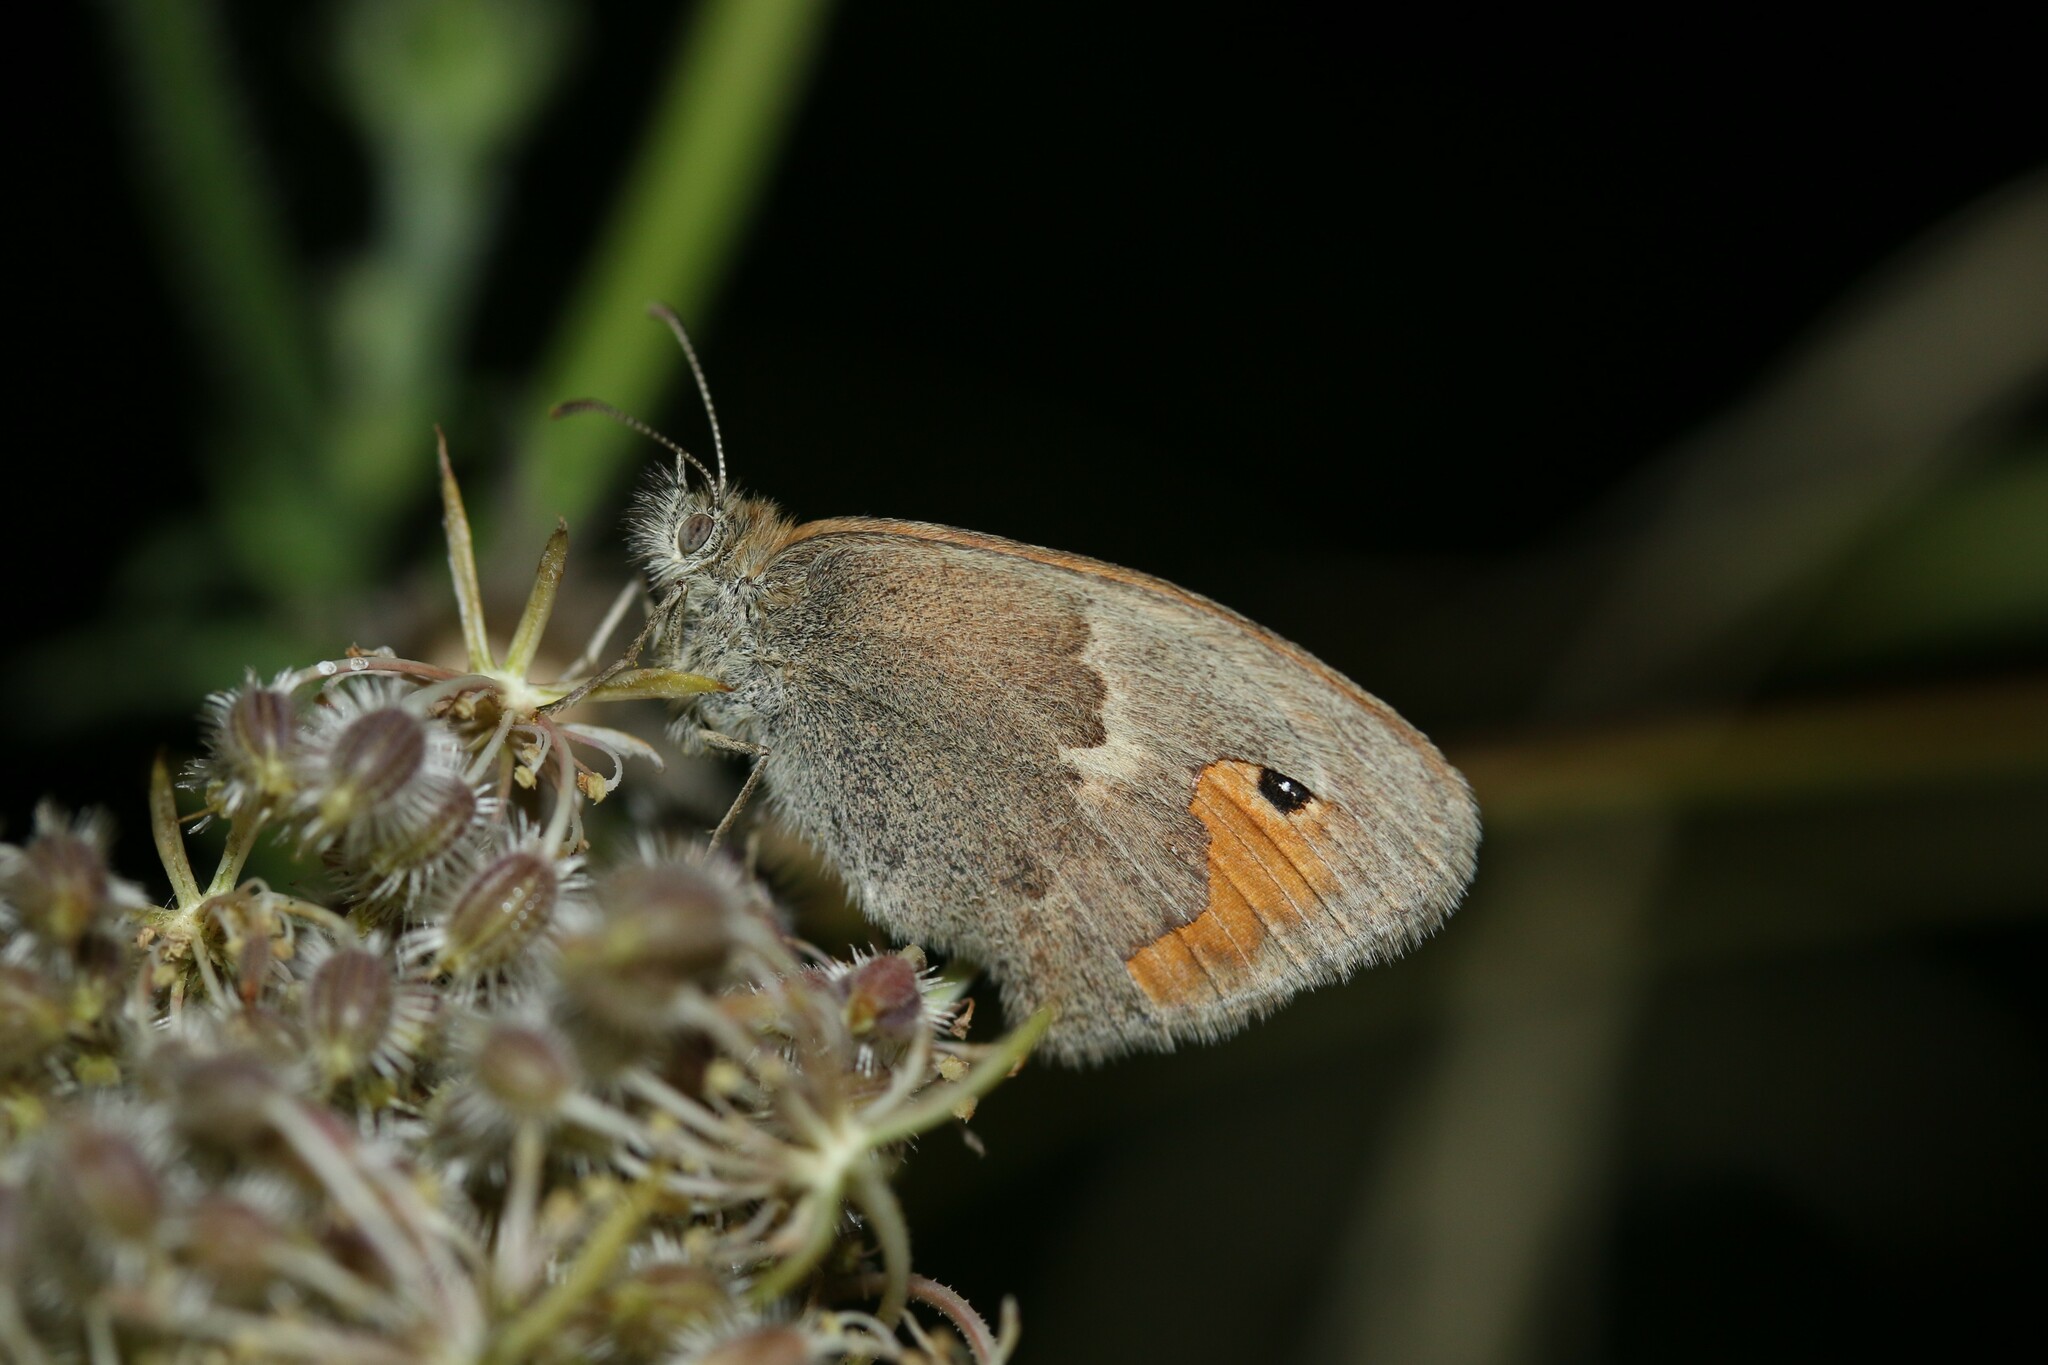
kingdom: Animalia
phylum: Arthropoda
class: Insecta
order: Lepidoptera
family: Nymphalidae
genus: Coenonympha
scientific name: Coenonympha pamphilus
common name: Small heath
